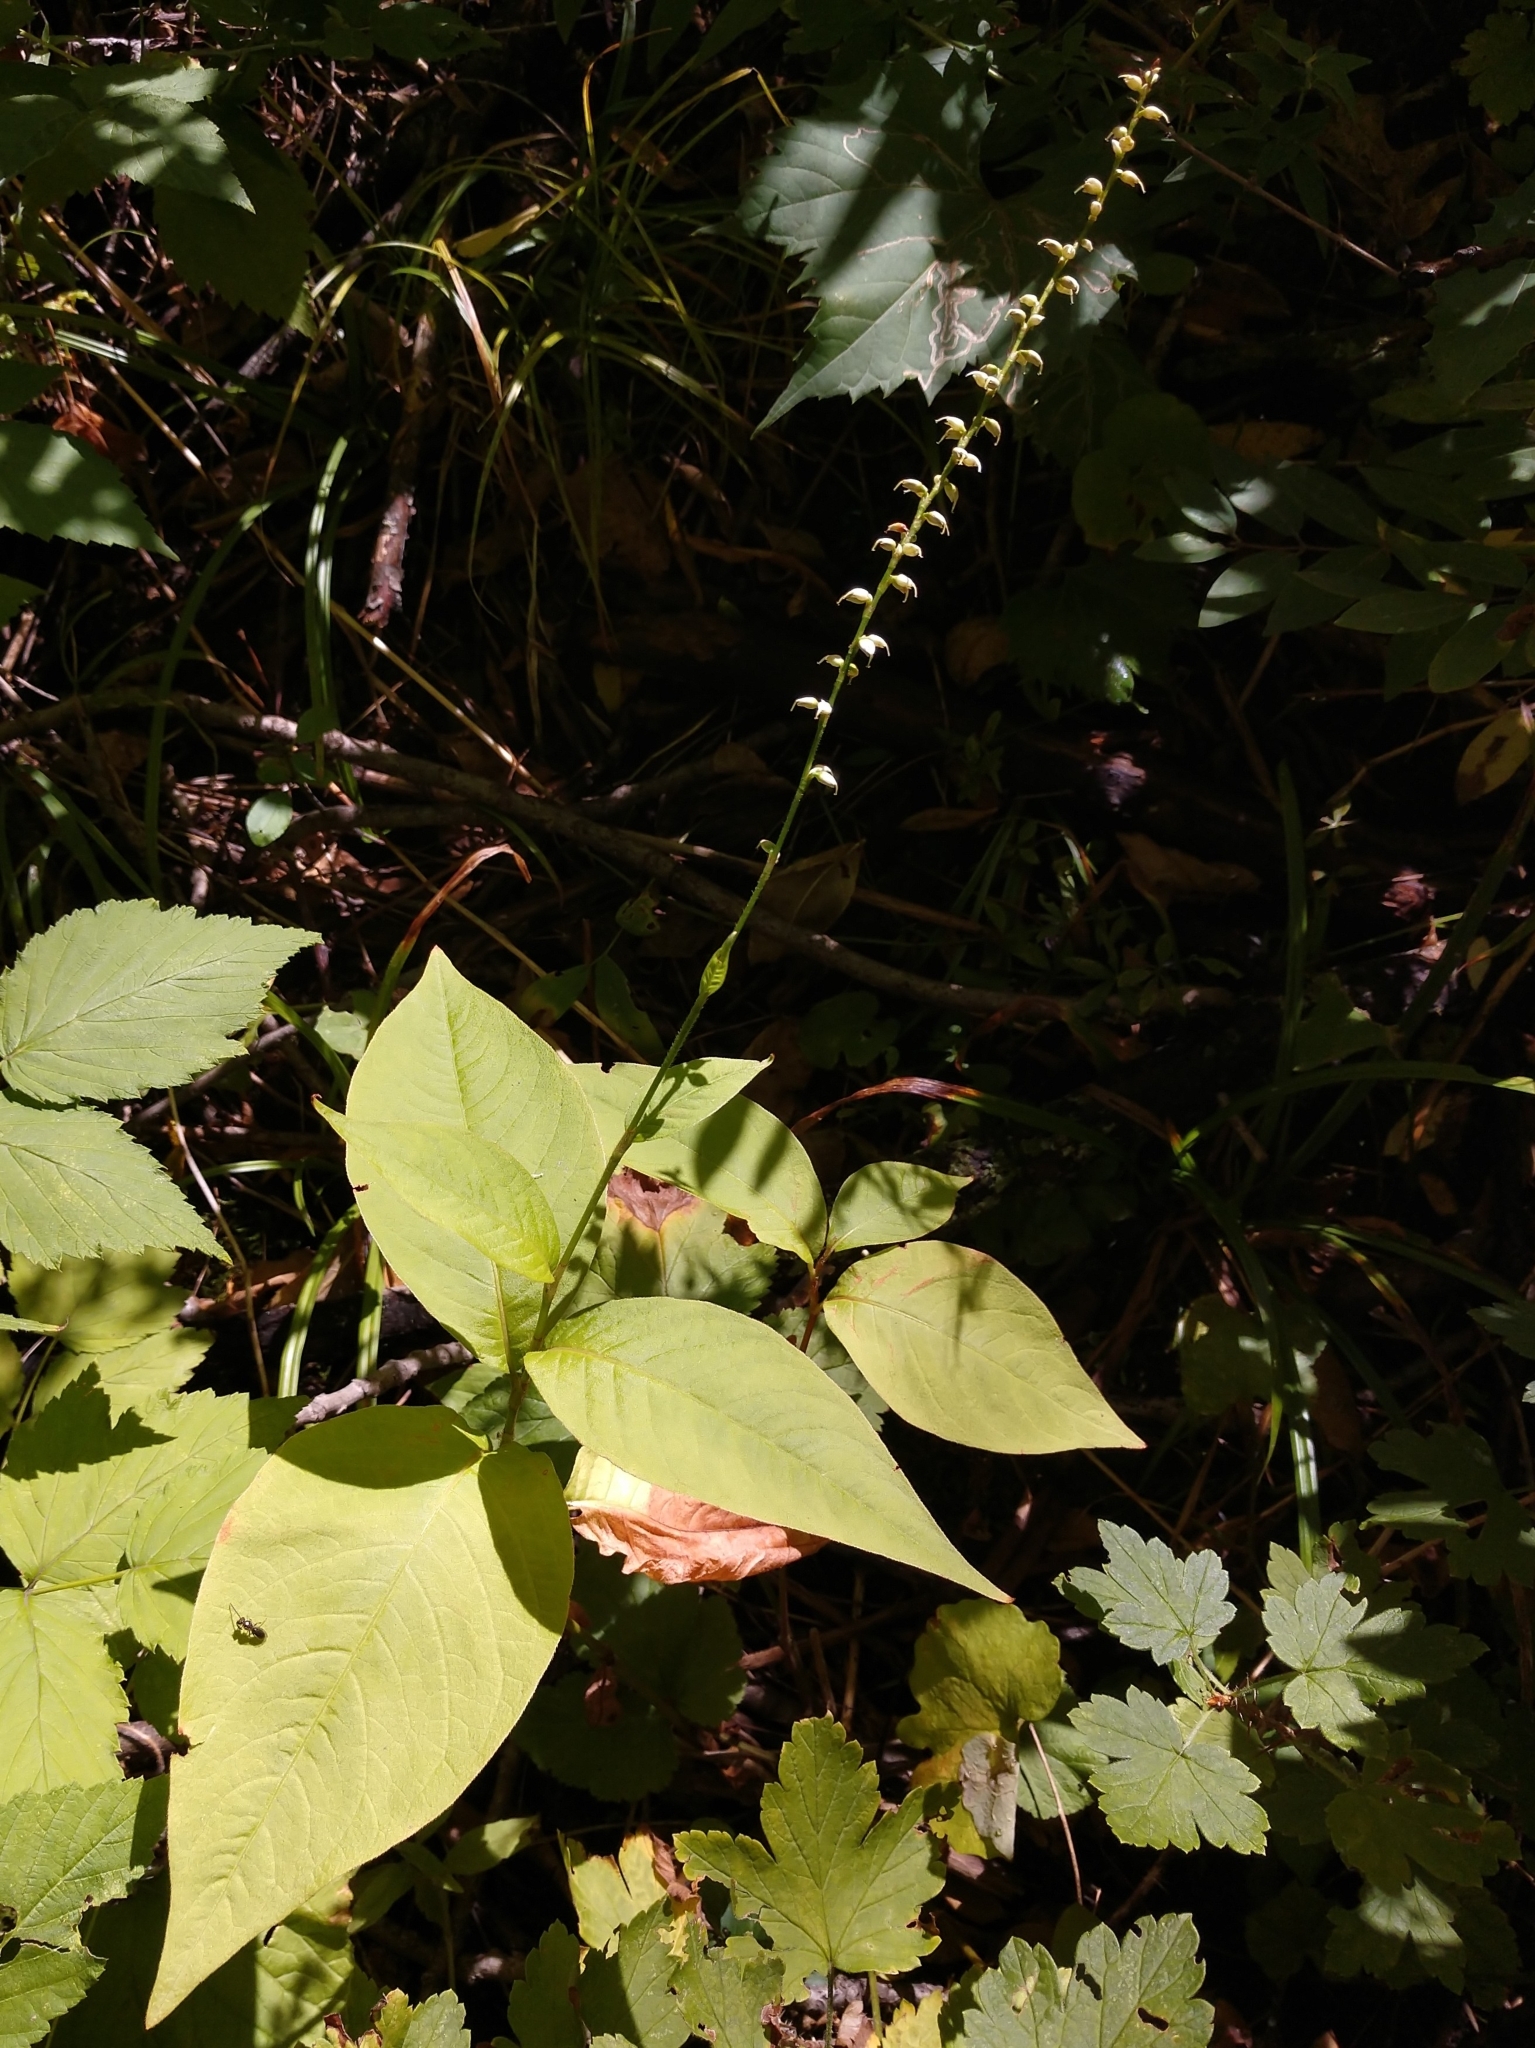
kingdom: Plantae
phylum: Tracheophyta
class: Magnoliopsida
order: Caryophyllales
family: Polygonaceae
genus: Persicaria
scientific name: Persicaria virginiana
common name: Jumpseed
